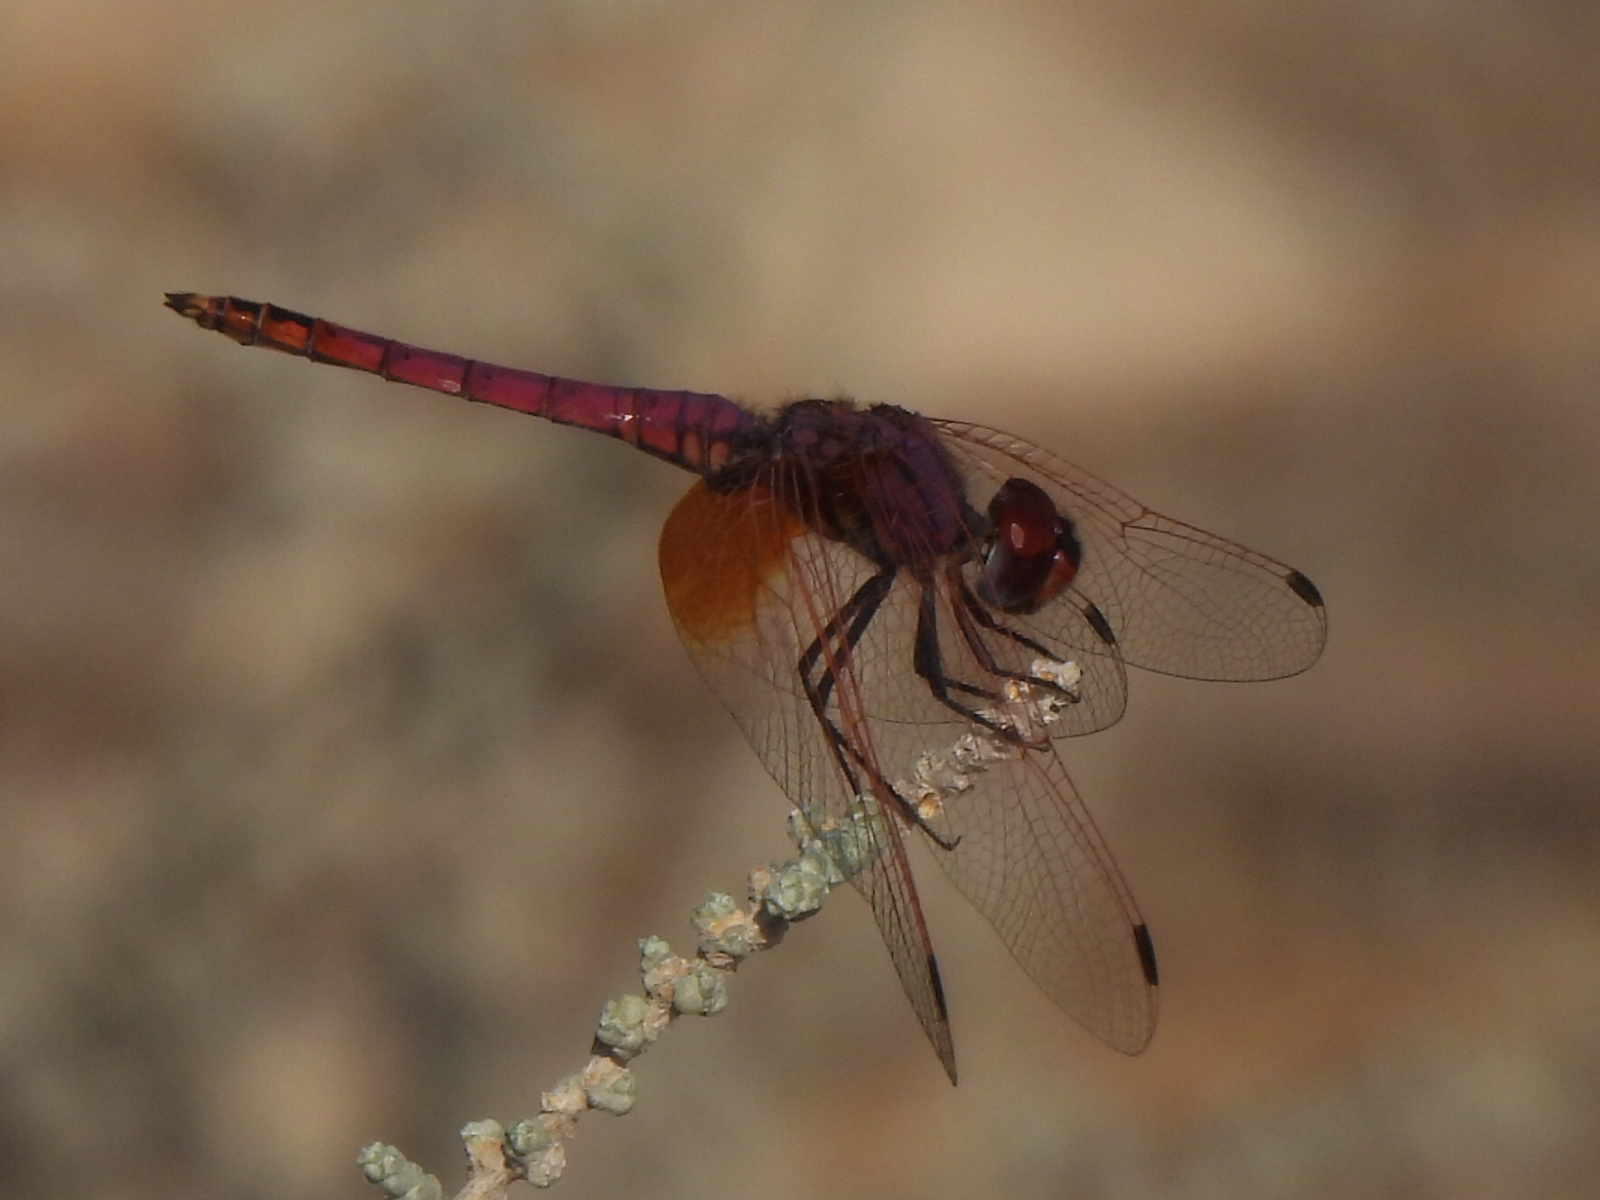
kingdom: Animalia
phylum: Arthropoda
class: Insecta
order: Odonata
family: Libellulidae
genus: Trithemis
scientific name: Trithemis annulata
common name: Violet dropwing
